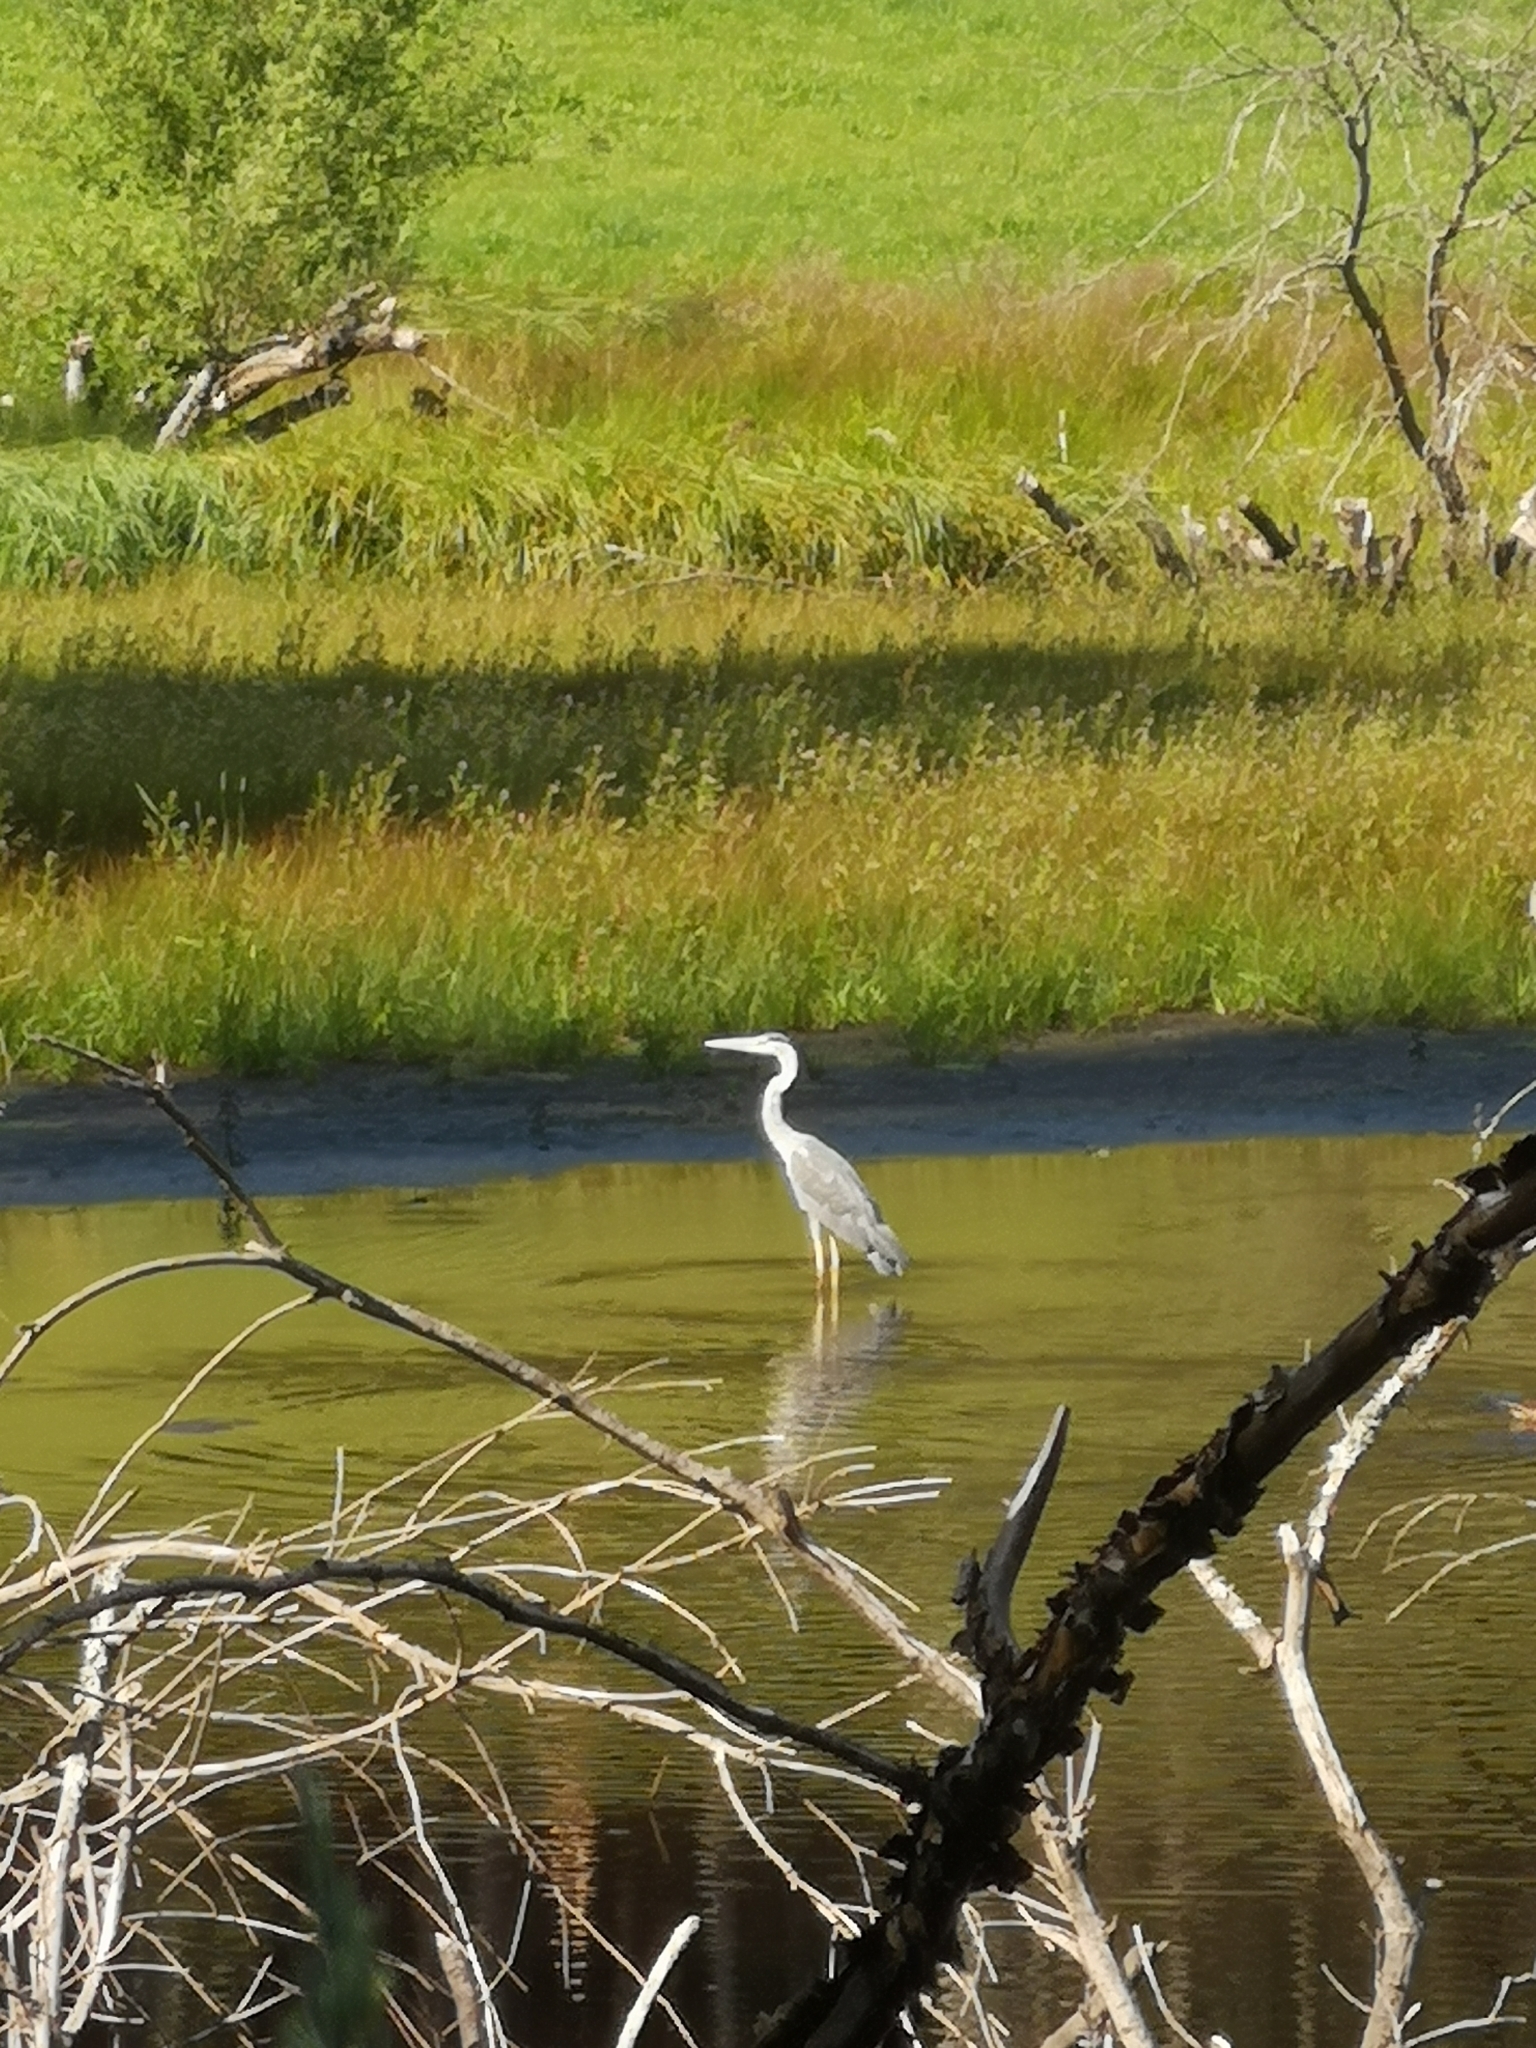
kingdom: Animalia
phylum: Chordata
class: Aves
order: Pelecaniformes
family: Ardeidae
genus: Ardea
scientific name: Ardea cinerea
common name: Grey heron
